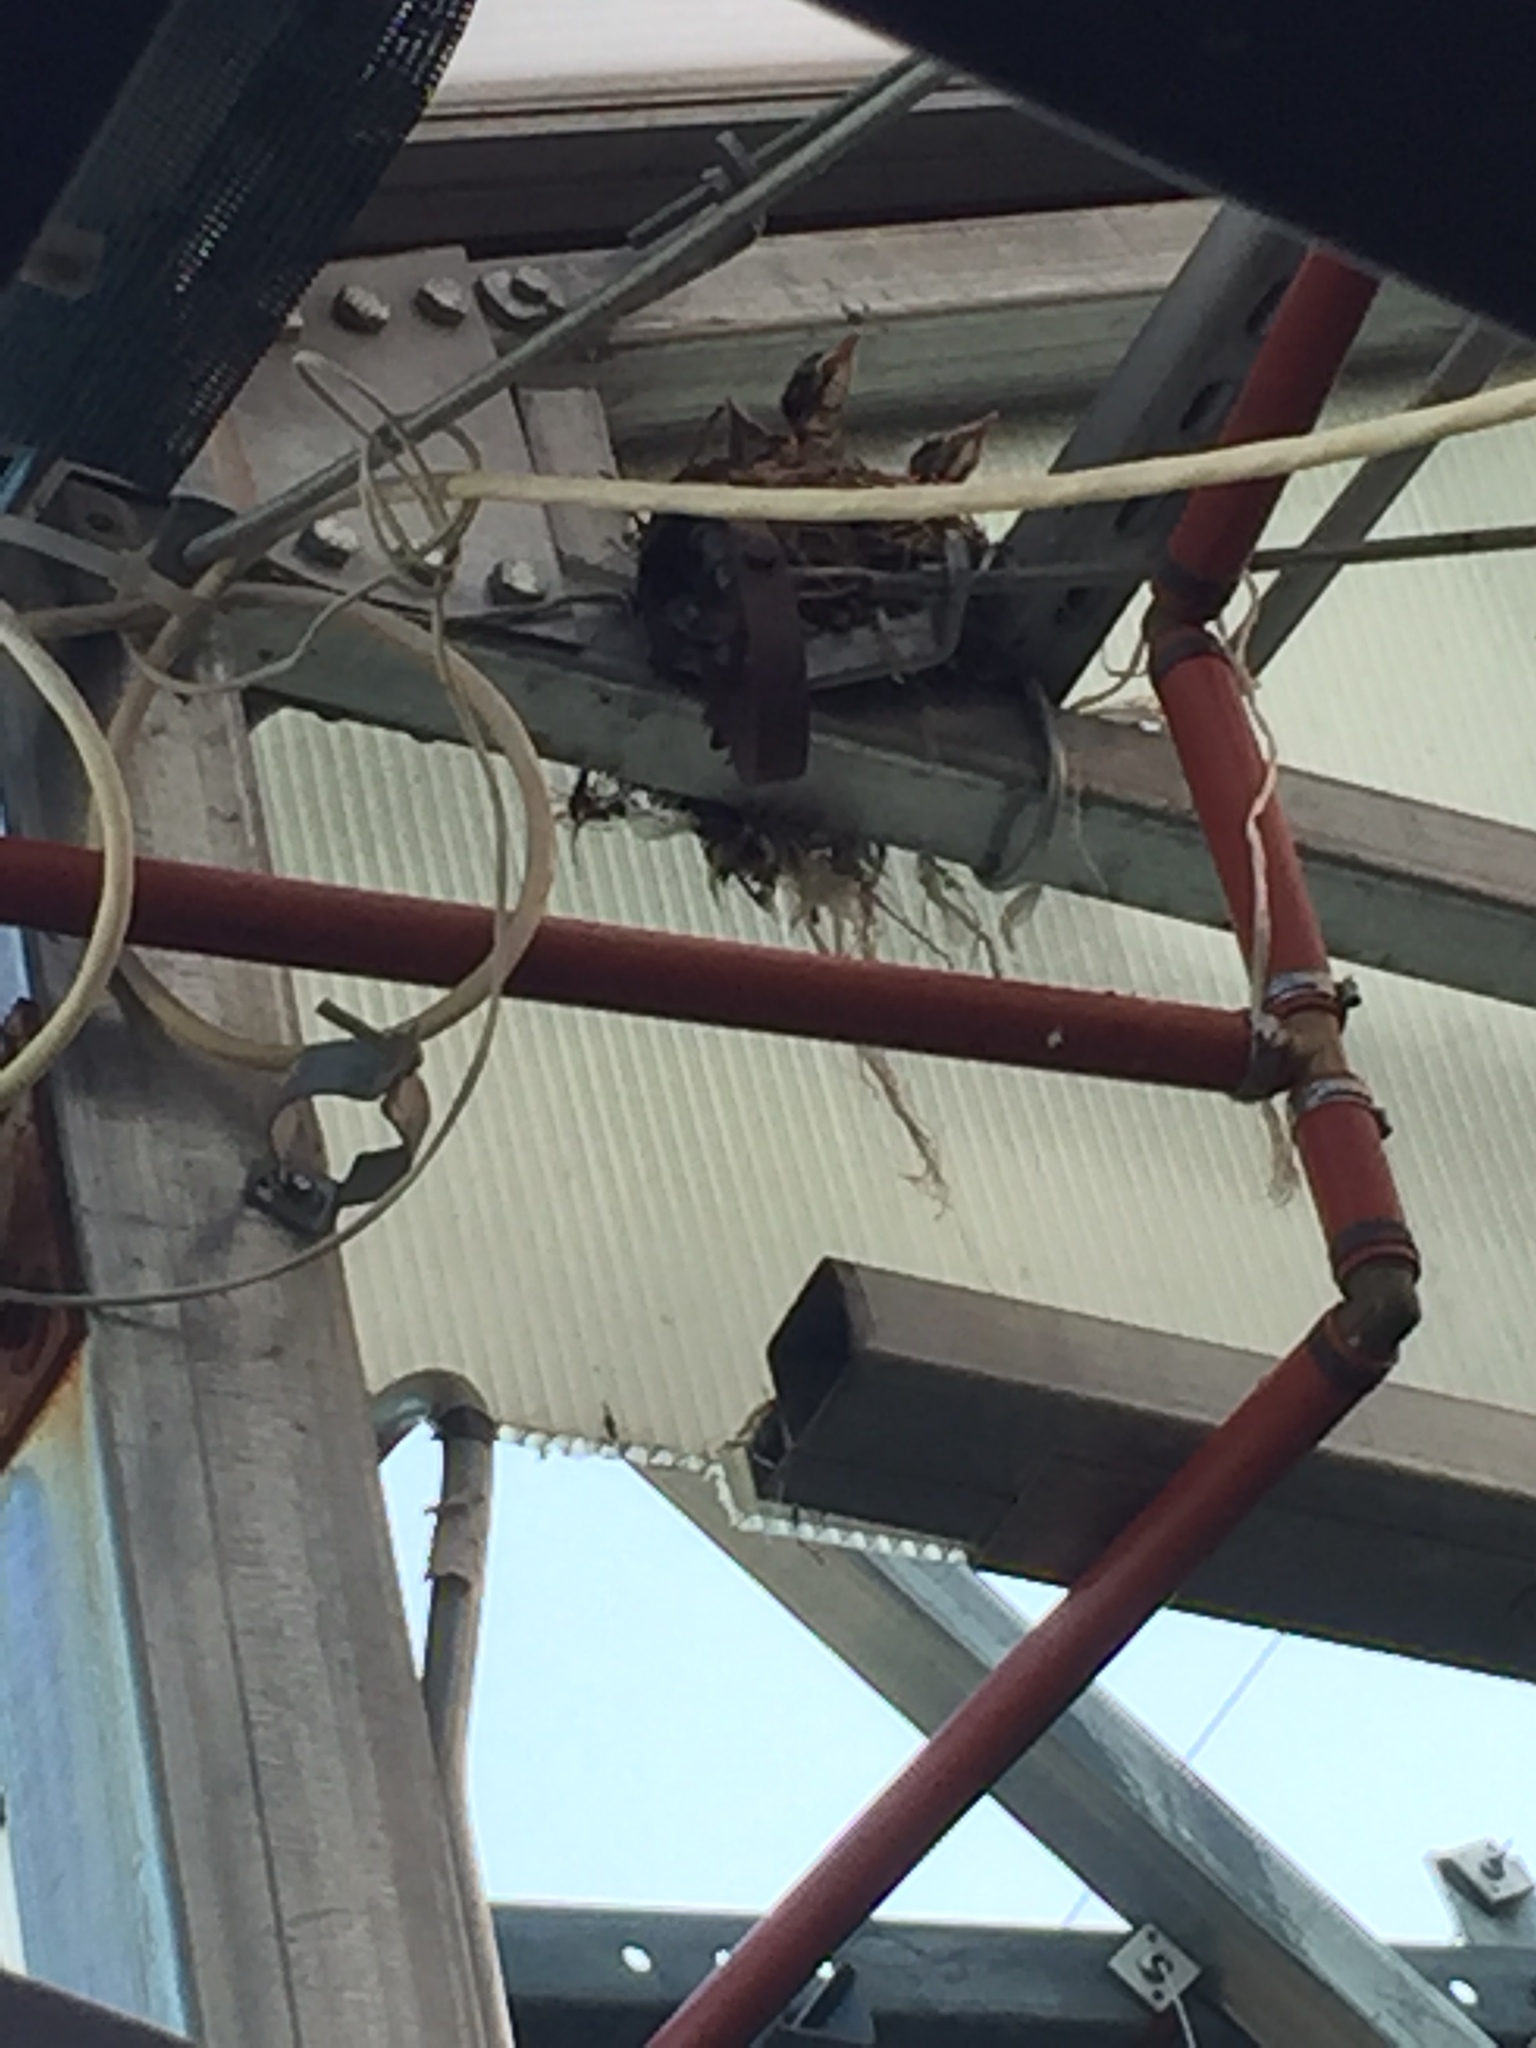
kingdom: Animalia
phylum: Chordata
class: Aves
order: Passeriformes
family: Turdidae
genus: Turdus
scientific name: Turdus migratorius
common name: American robin
